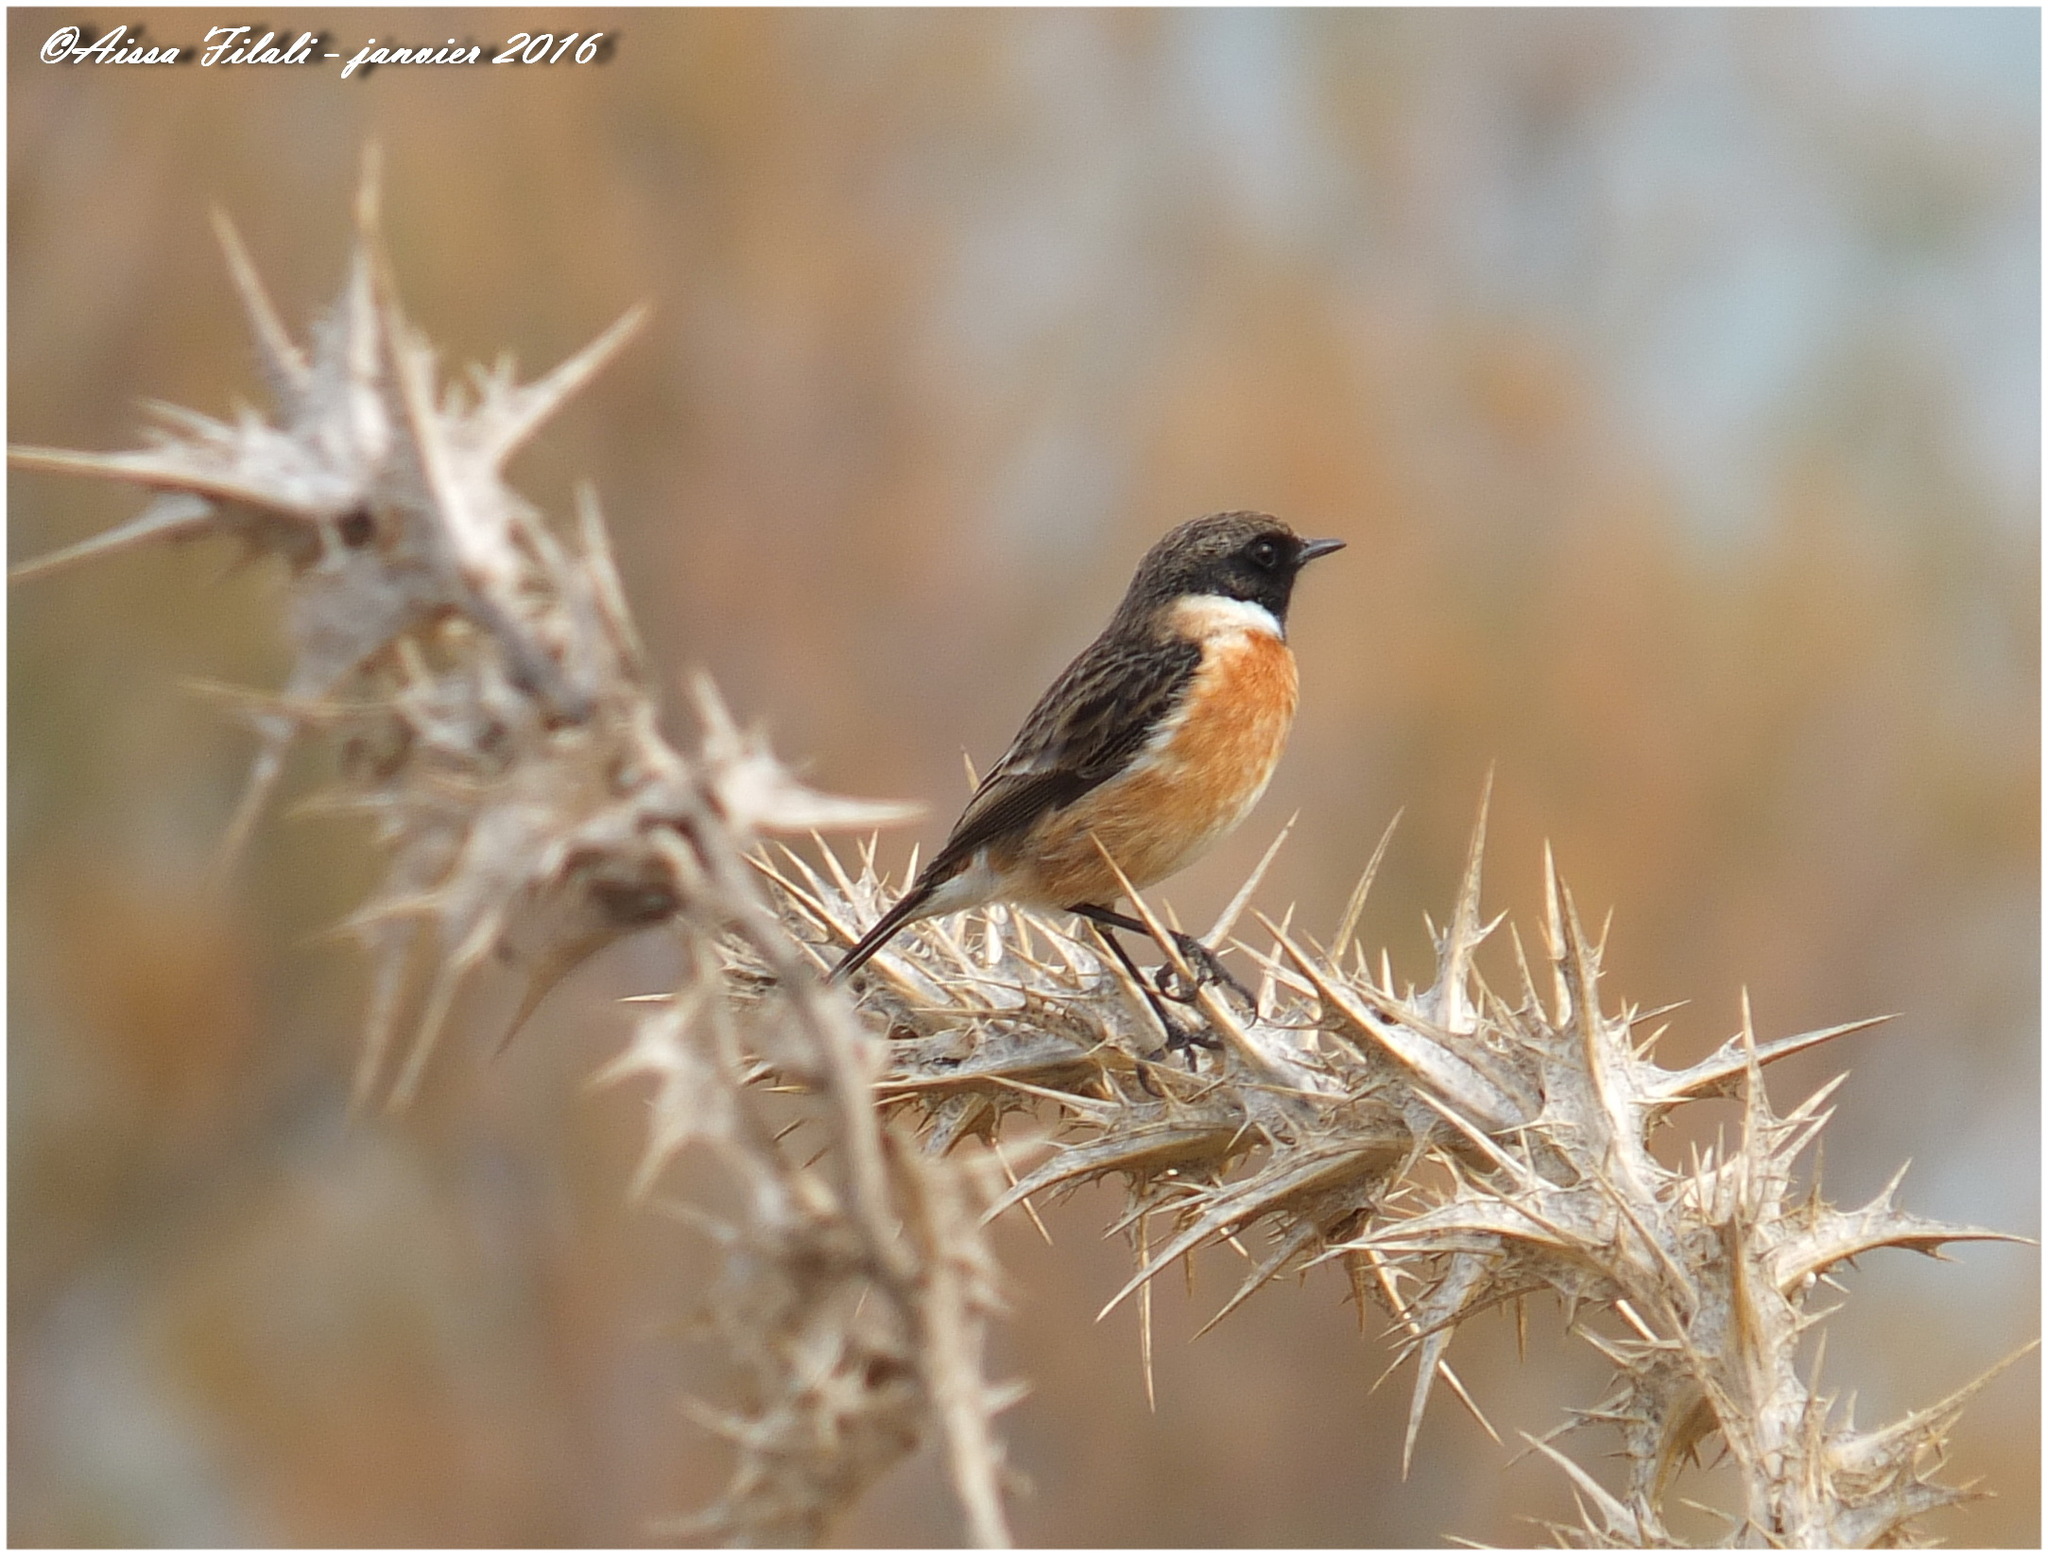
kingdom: Animalia
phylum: Chordata
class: Aves
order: Passeriformes
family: Muscicapidae
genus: Saxicola
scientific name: Saxicola rubicola
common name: European stonechat
